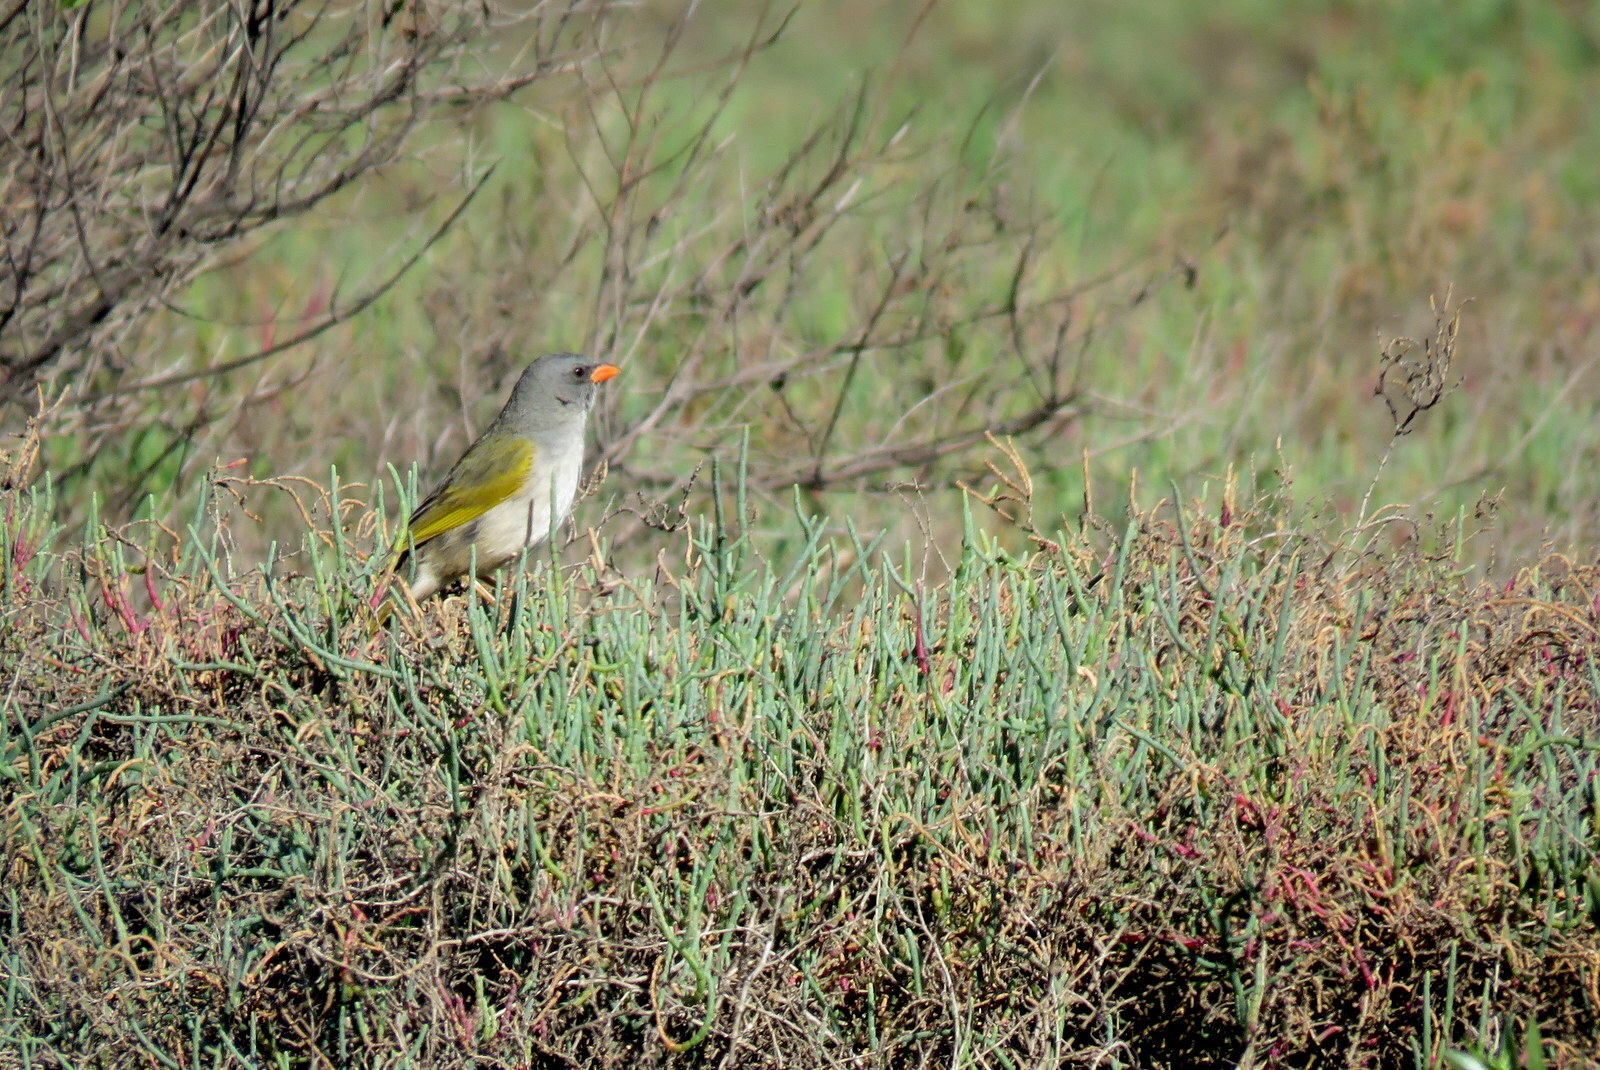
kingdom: Animalia
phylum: Chordata
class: Aves
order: Passeriformes
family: Thraupidae
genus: Embernagra
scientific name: Embernagra platensis
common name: Pampa finch
